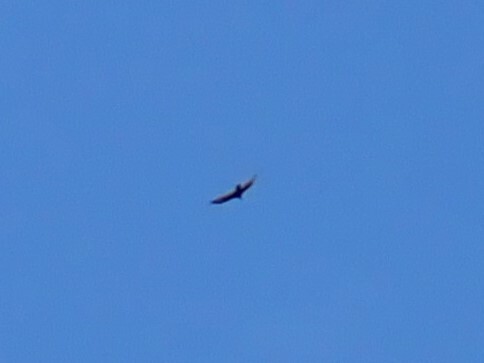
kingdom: Animalia
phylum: Chordata
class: Aves
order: Accipitriformes
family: Cathartidae
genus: Cathartes
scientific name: Cathartes aura
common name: Turkey vulture
